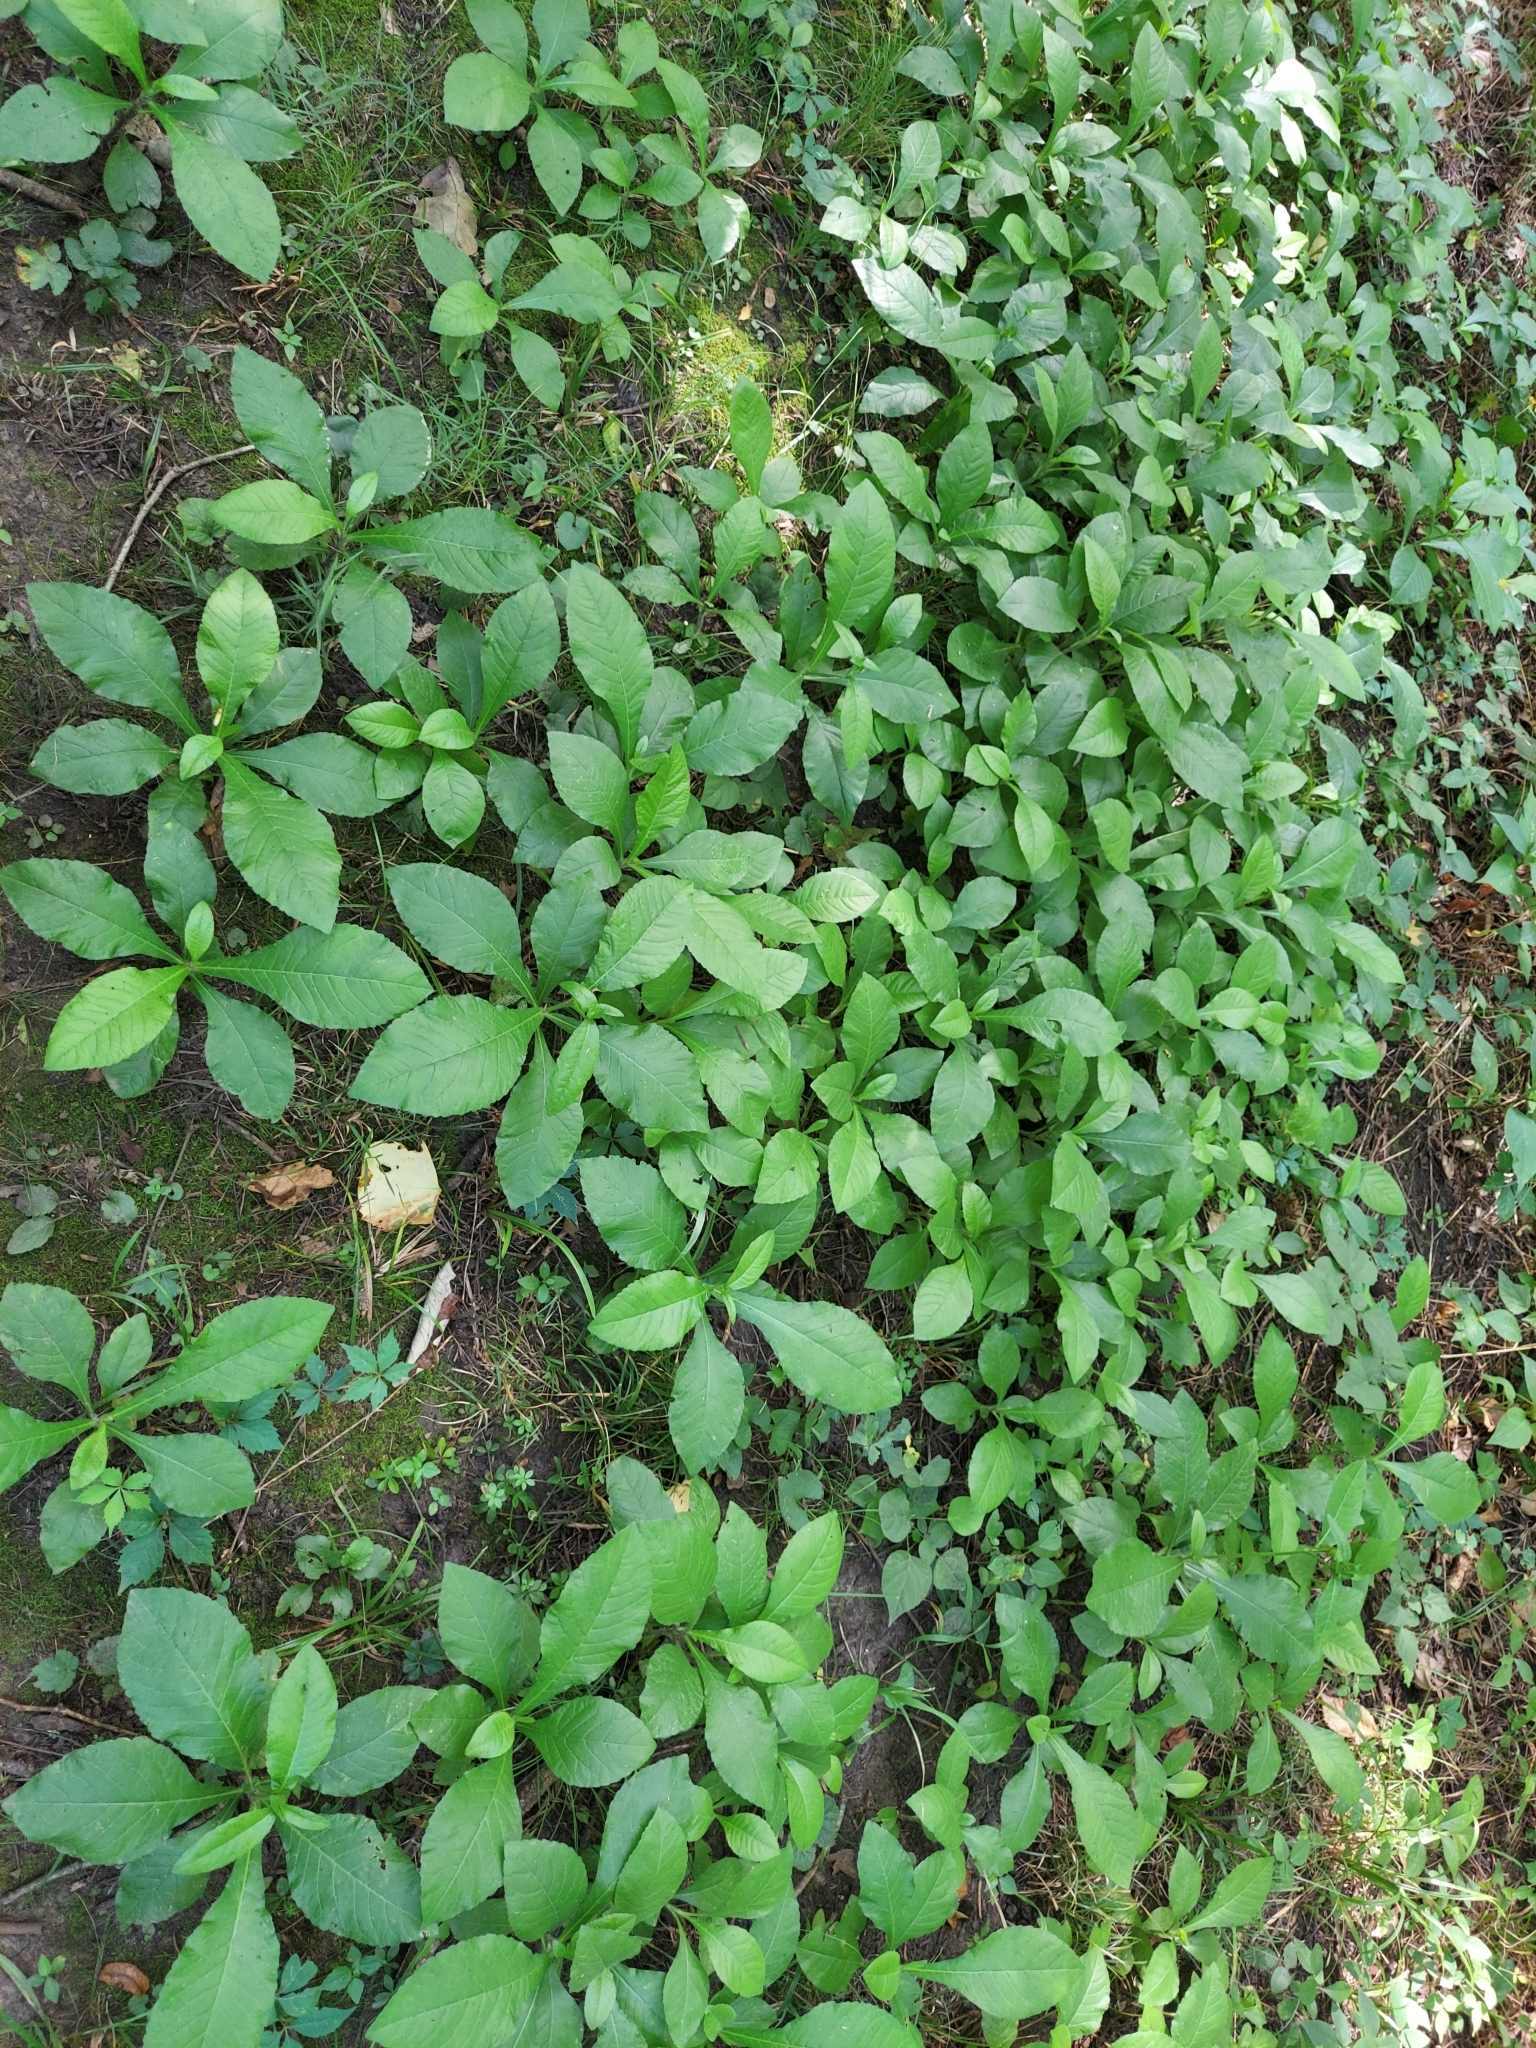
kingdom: Plantae
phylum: Tracheophyta
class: Magnoliopsida
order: Asterales
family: Asteraceae
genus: Elephantopus
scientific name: Elephantopus carolinianus
